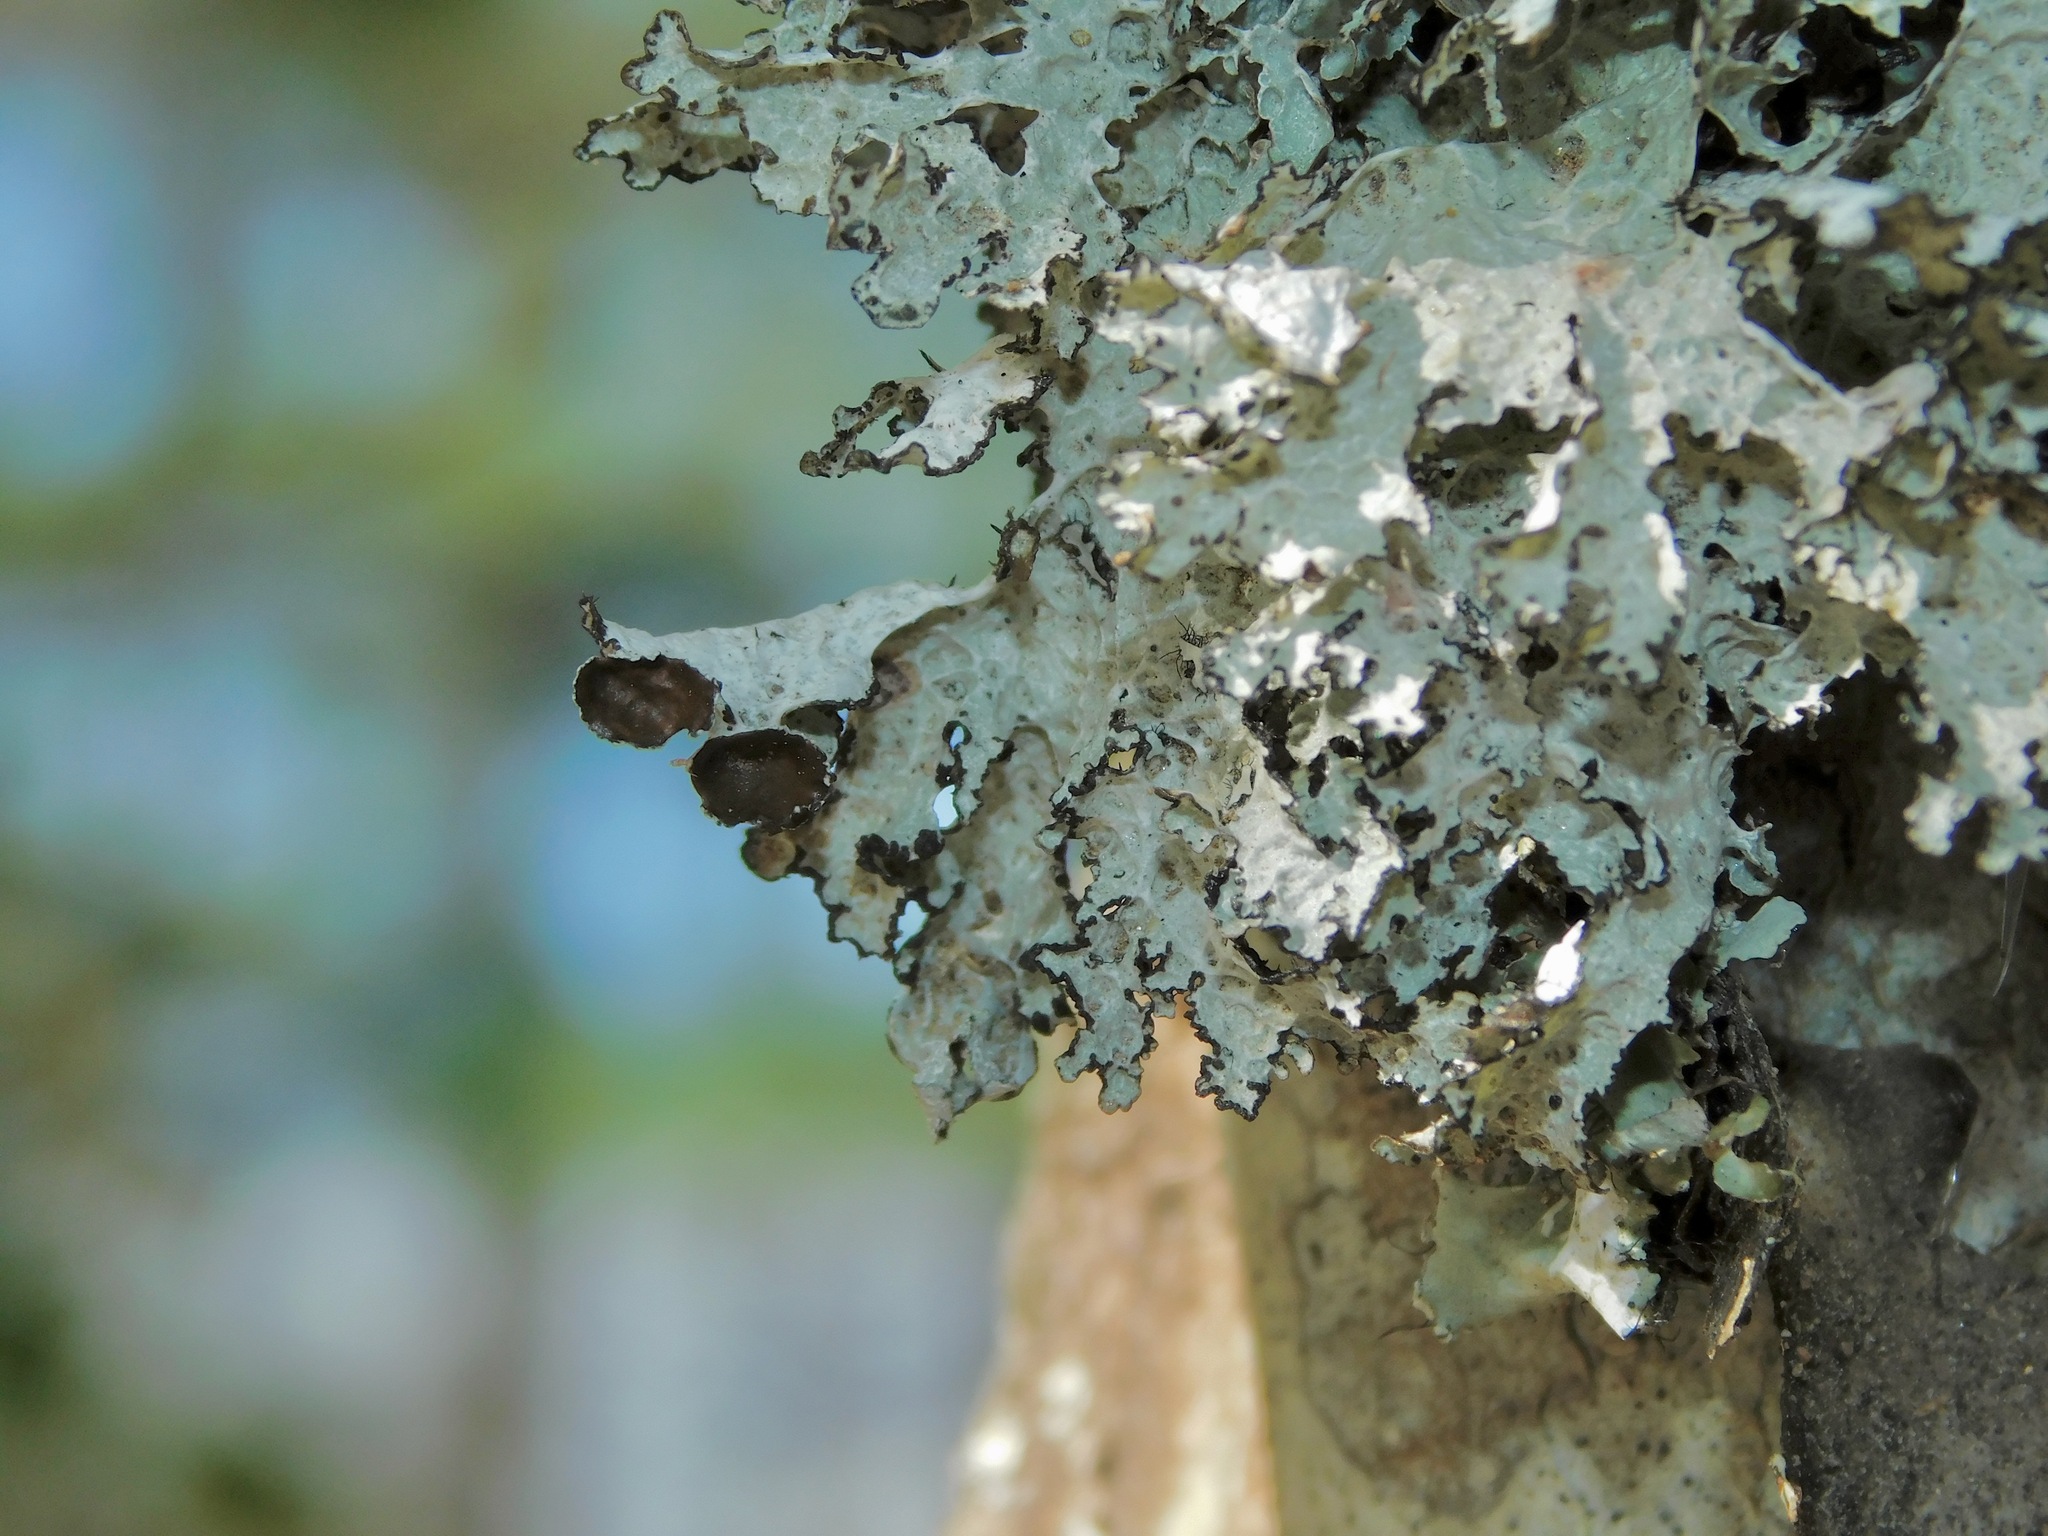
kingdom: Fungi
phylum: Ascomycota
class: Lecanoromycetes
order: Lecanorales
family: Parmeliaceae
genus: Platismatia
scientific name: Platismatia tuckermanii
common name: Crumpled rag lichen
